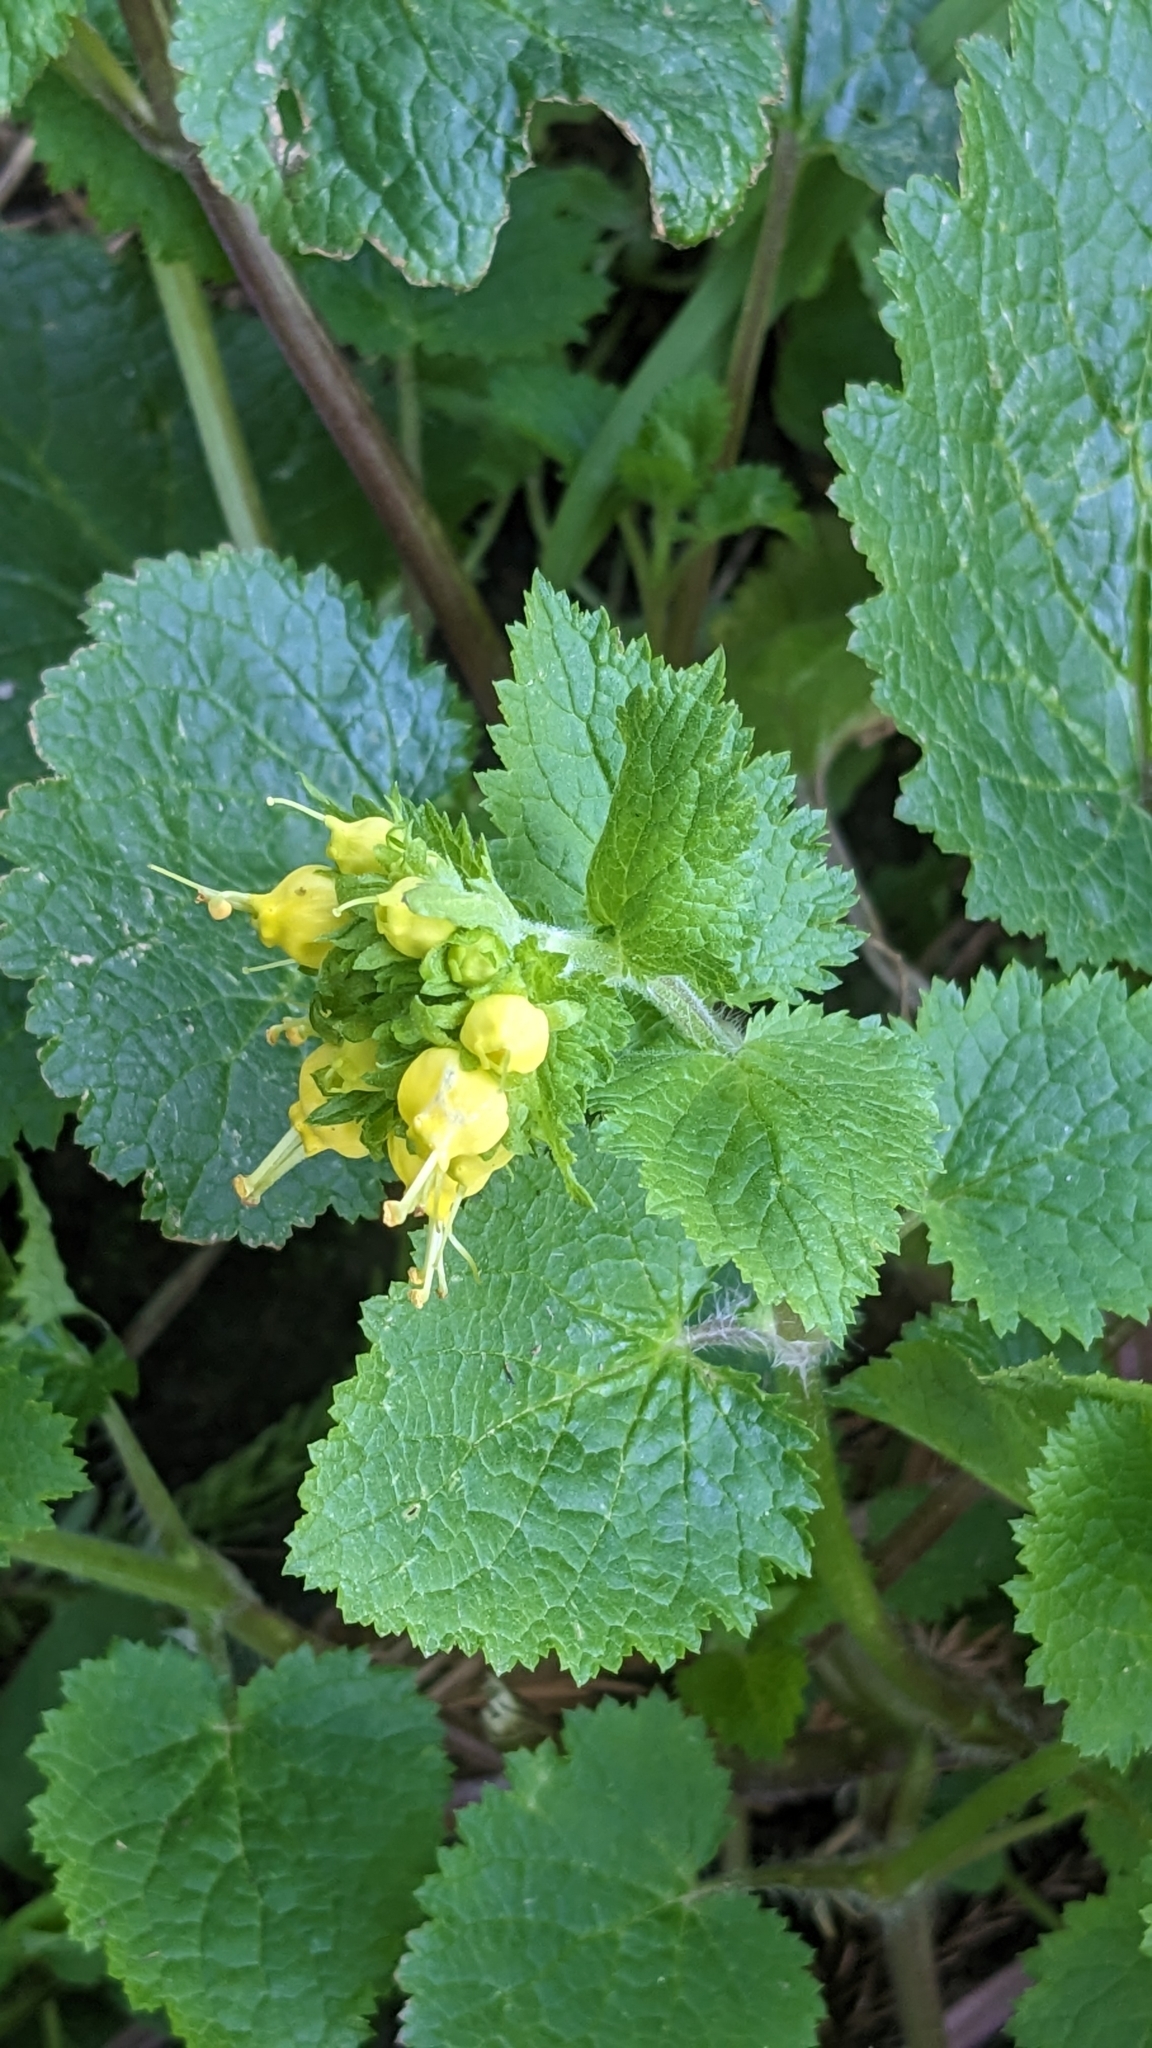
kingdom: Plantae
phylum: Tracheophyta
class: Magnoliopsida
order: Lamiales
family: Scrophulariaceae
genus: Scrophularia
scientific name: Scrophularia vernalis
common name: Yellow figwort
